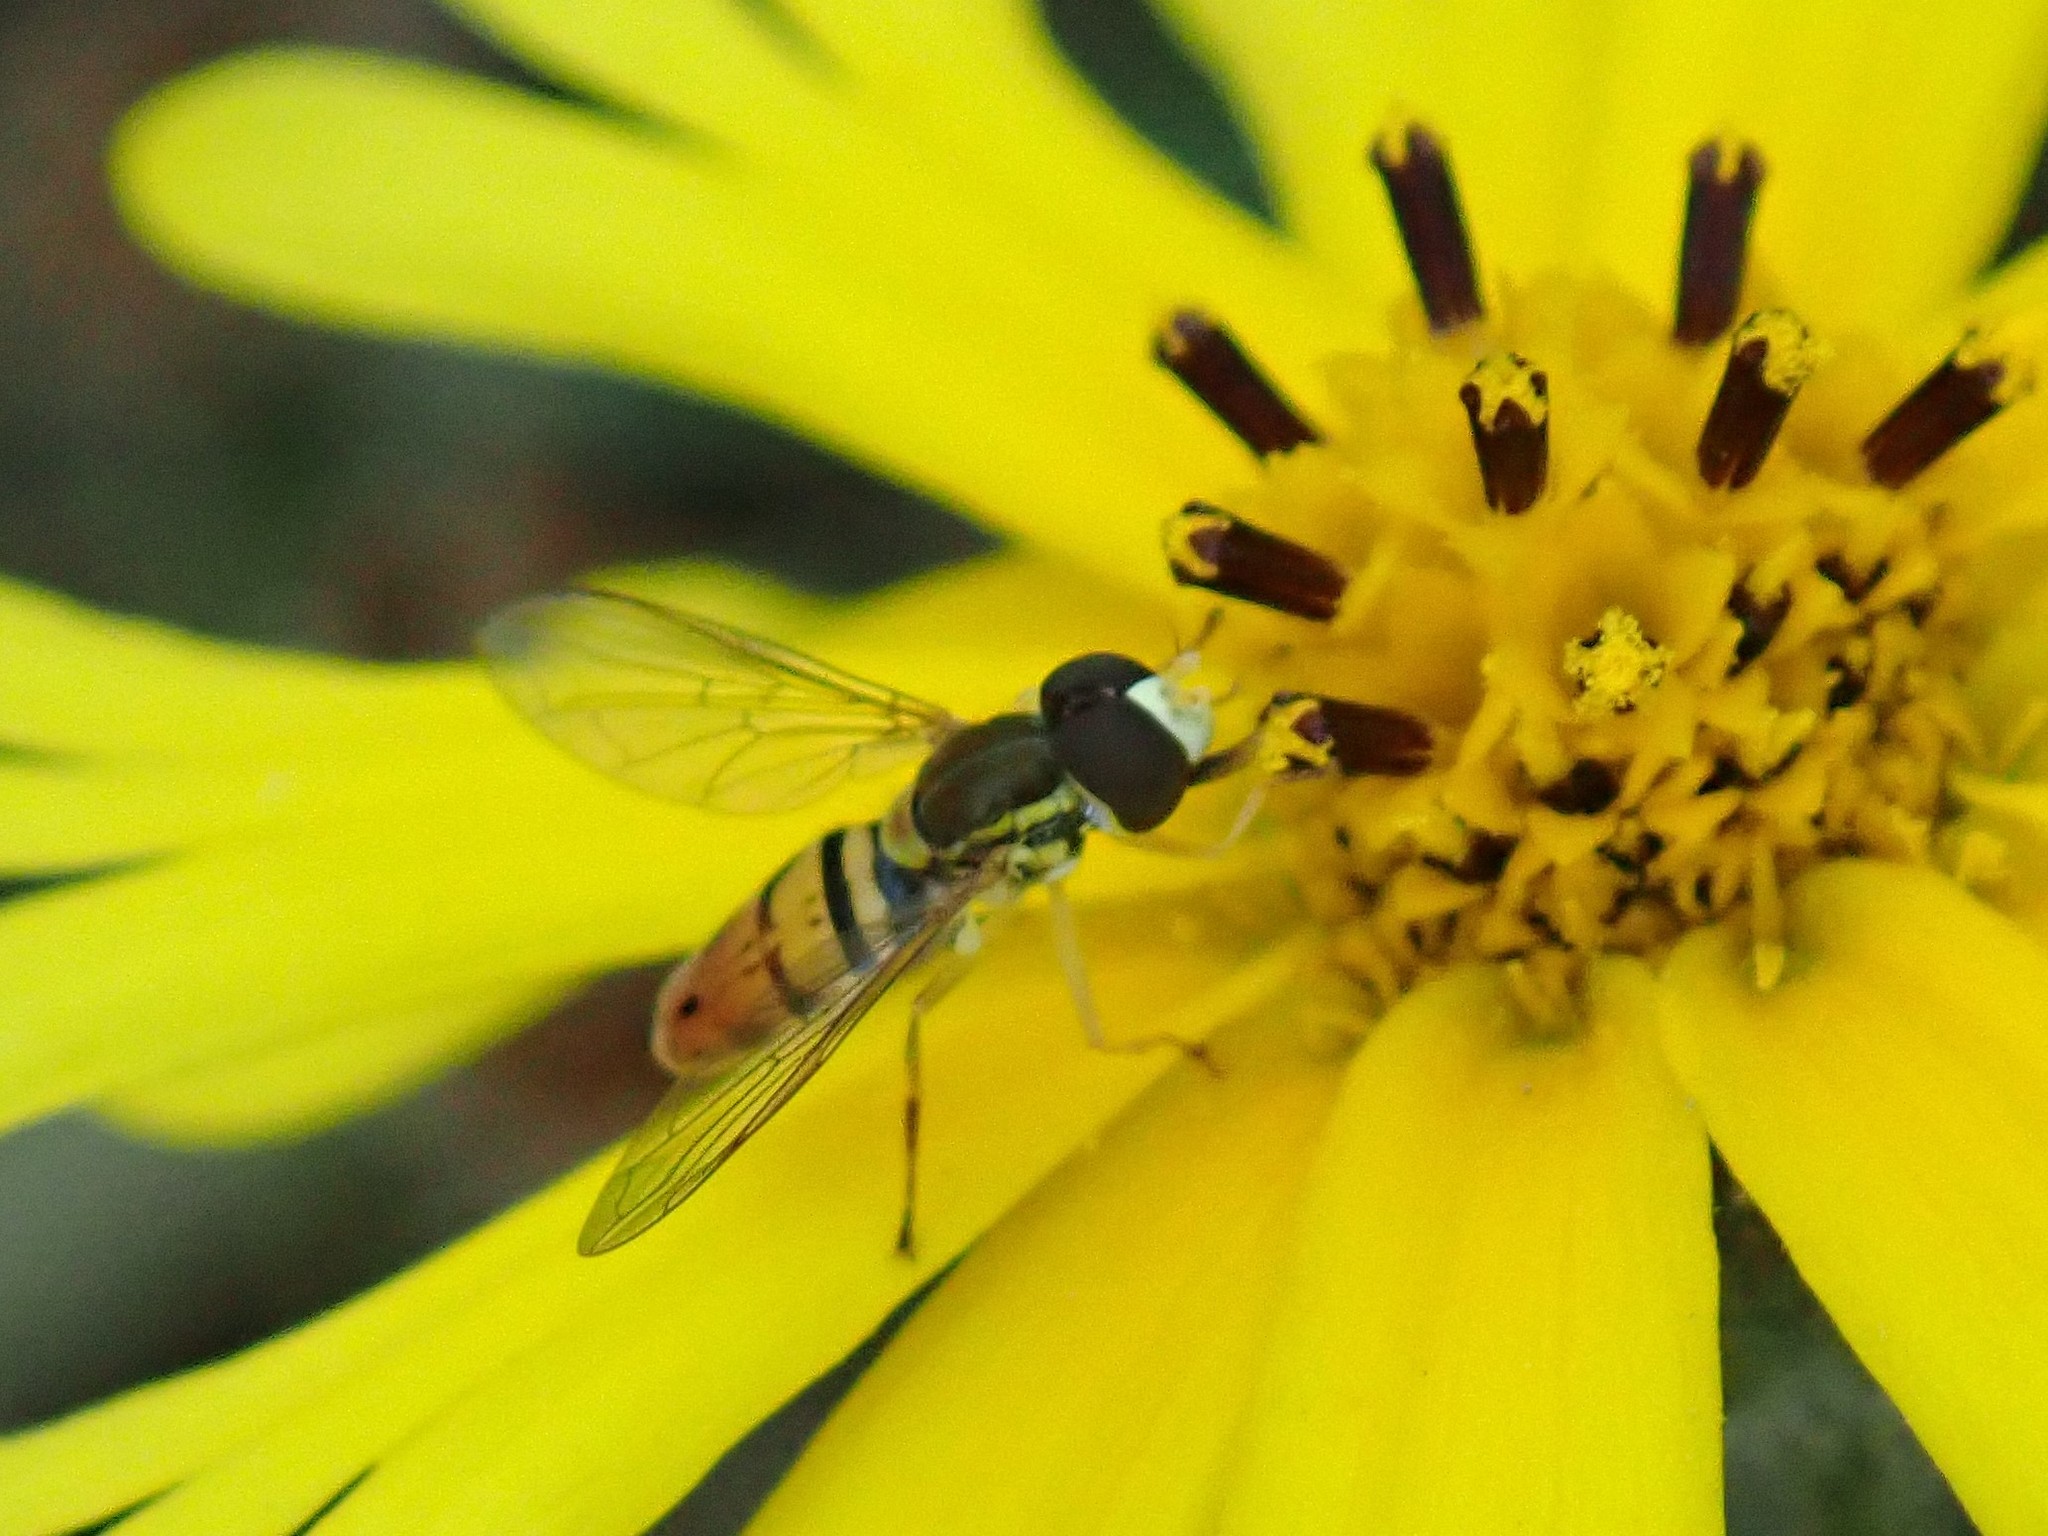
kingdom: Animalia
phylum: Arthropoda
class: Insecta
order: Diptera
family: Syrphidae
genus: Toxomerus
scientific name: Toxomerus marginatus
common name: Syrphid fly
